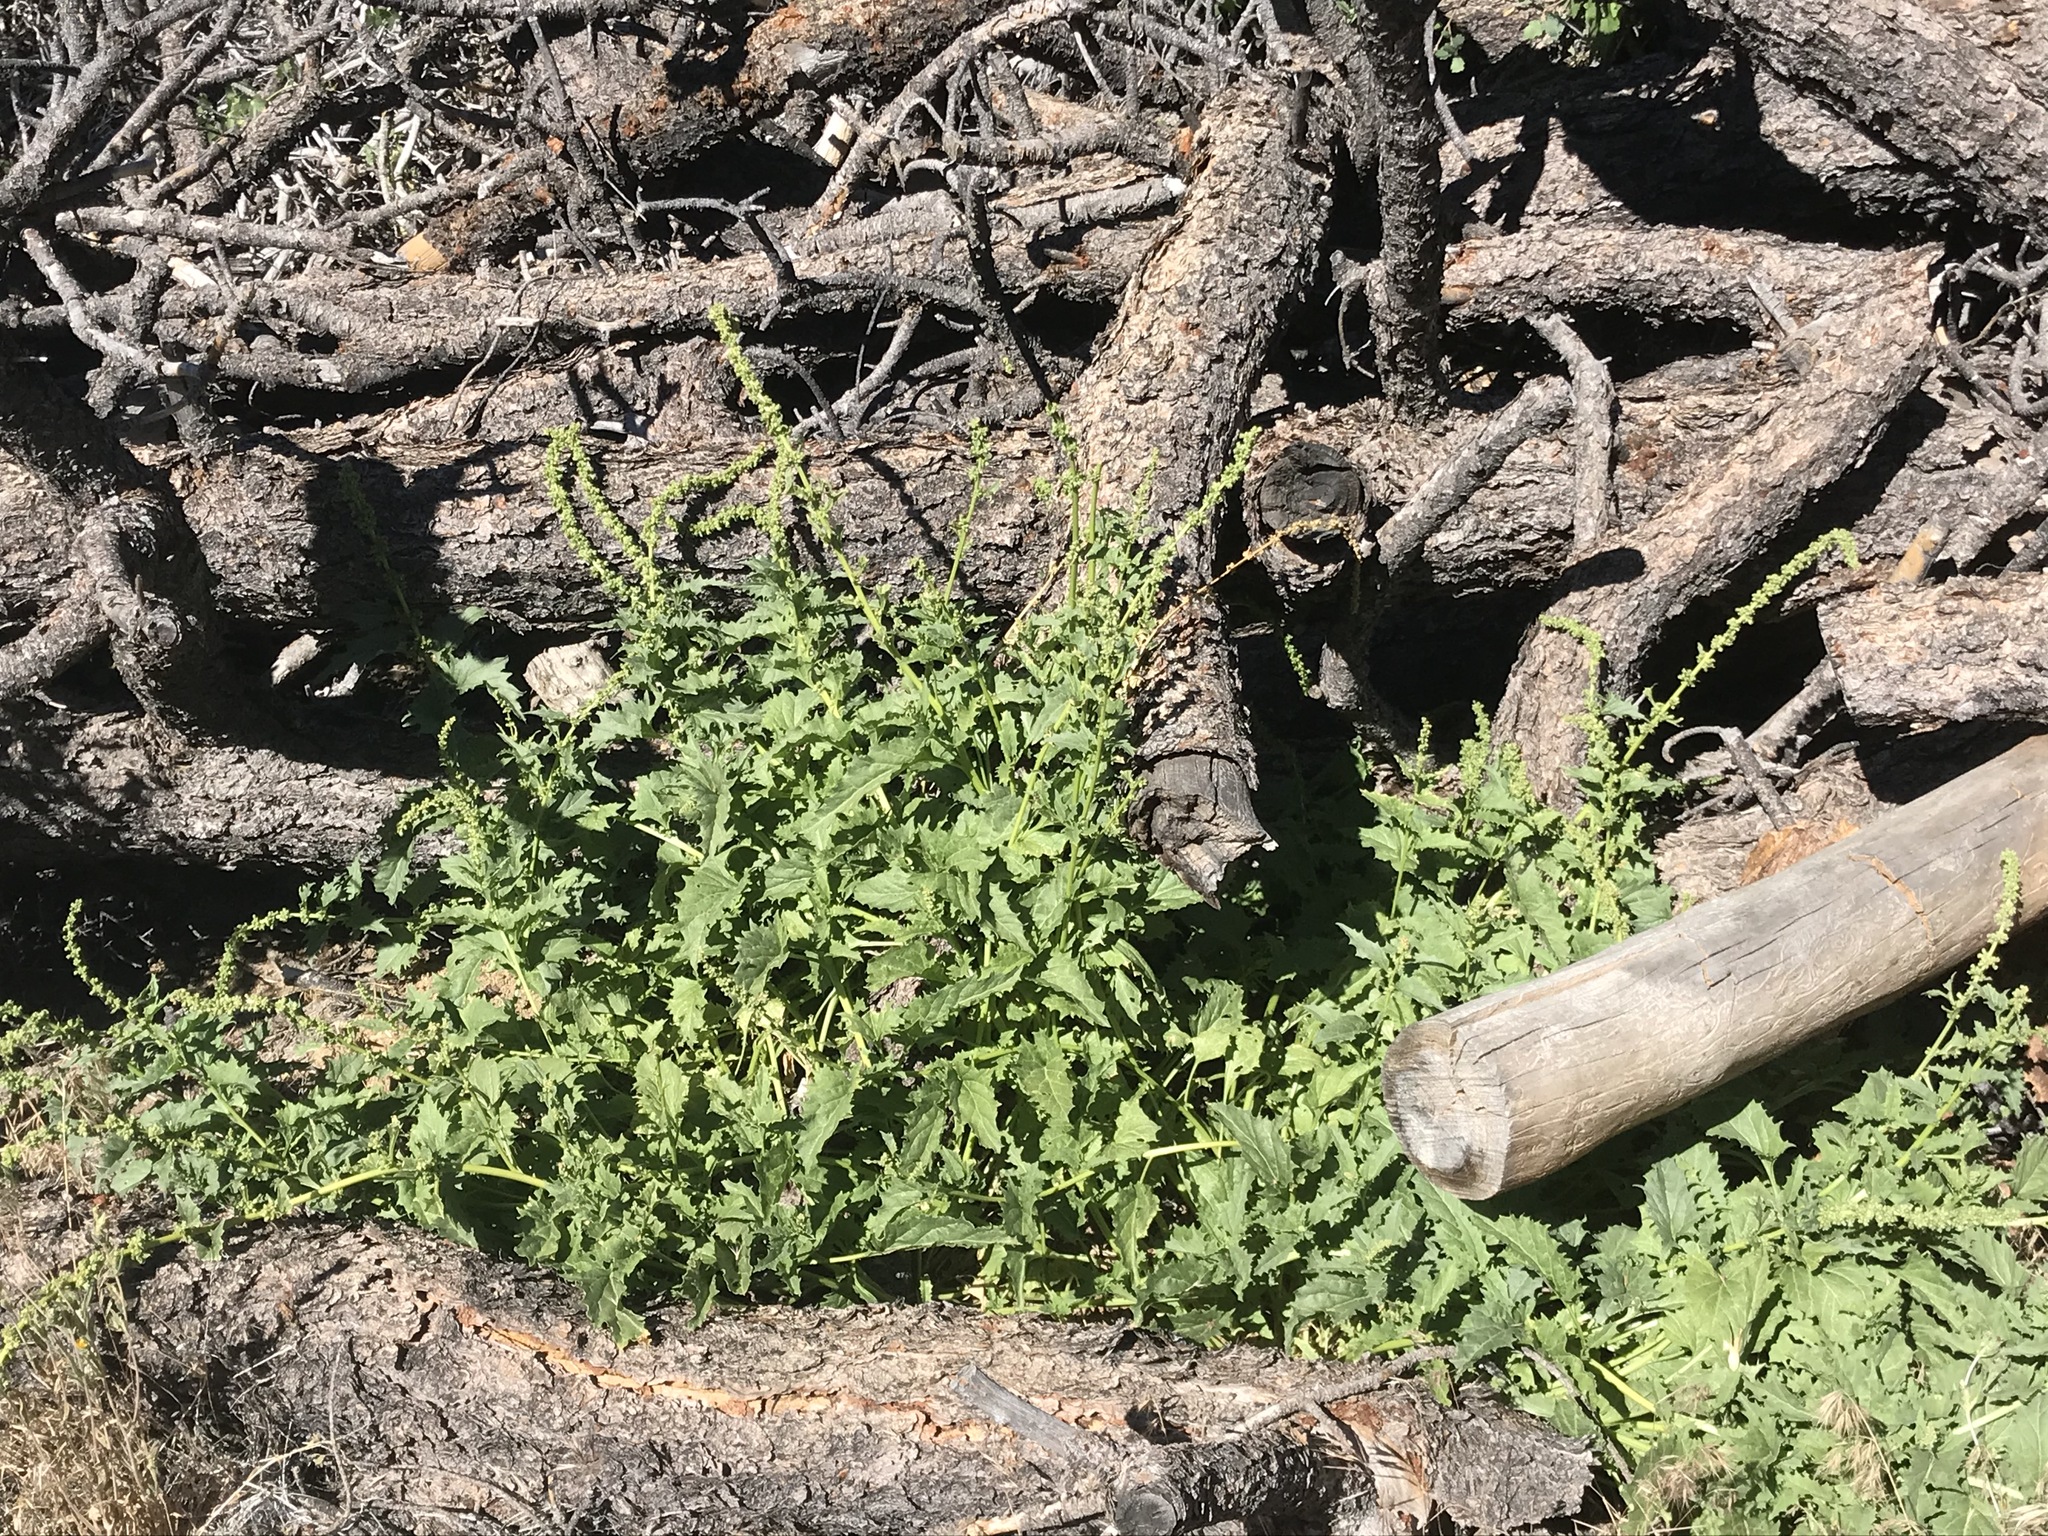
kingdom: Plantae
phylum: Tracheophyta
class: Magnoliopsida
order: Caryophyllales
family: Amaranthaceae
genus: Blitum
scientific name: Blitum californicum
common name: California goosefoot
